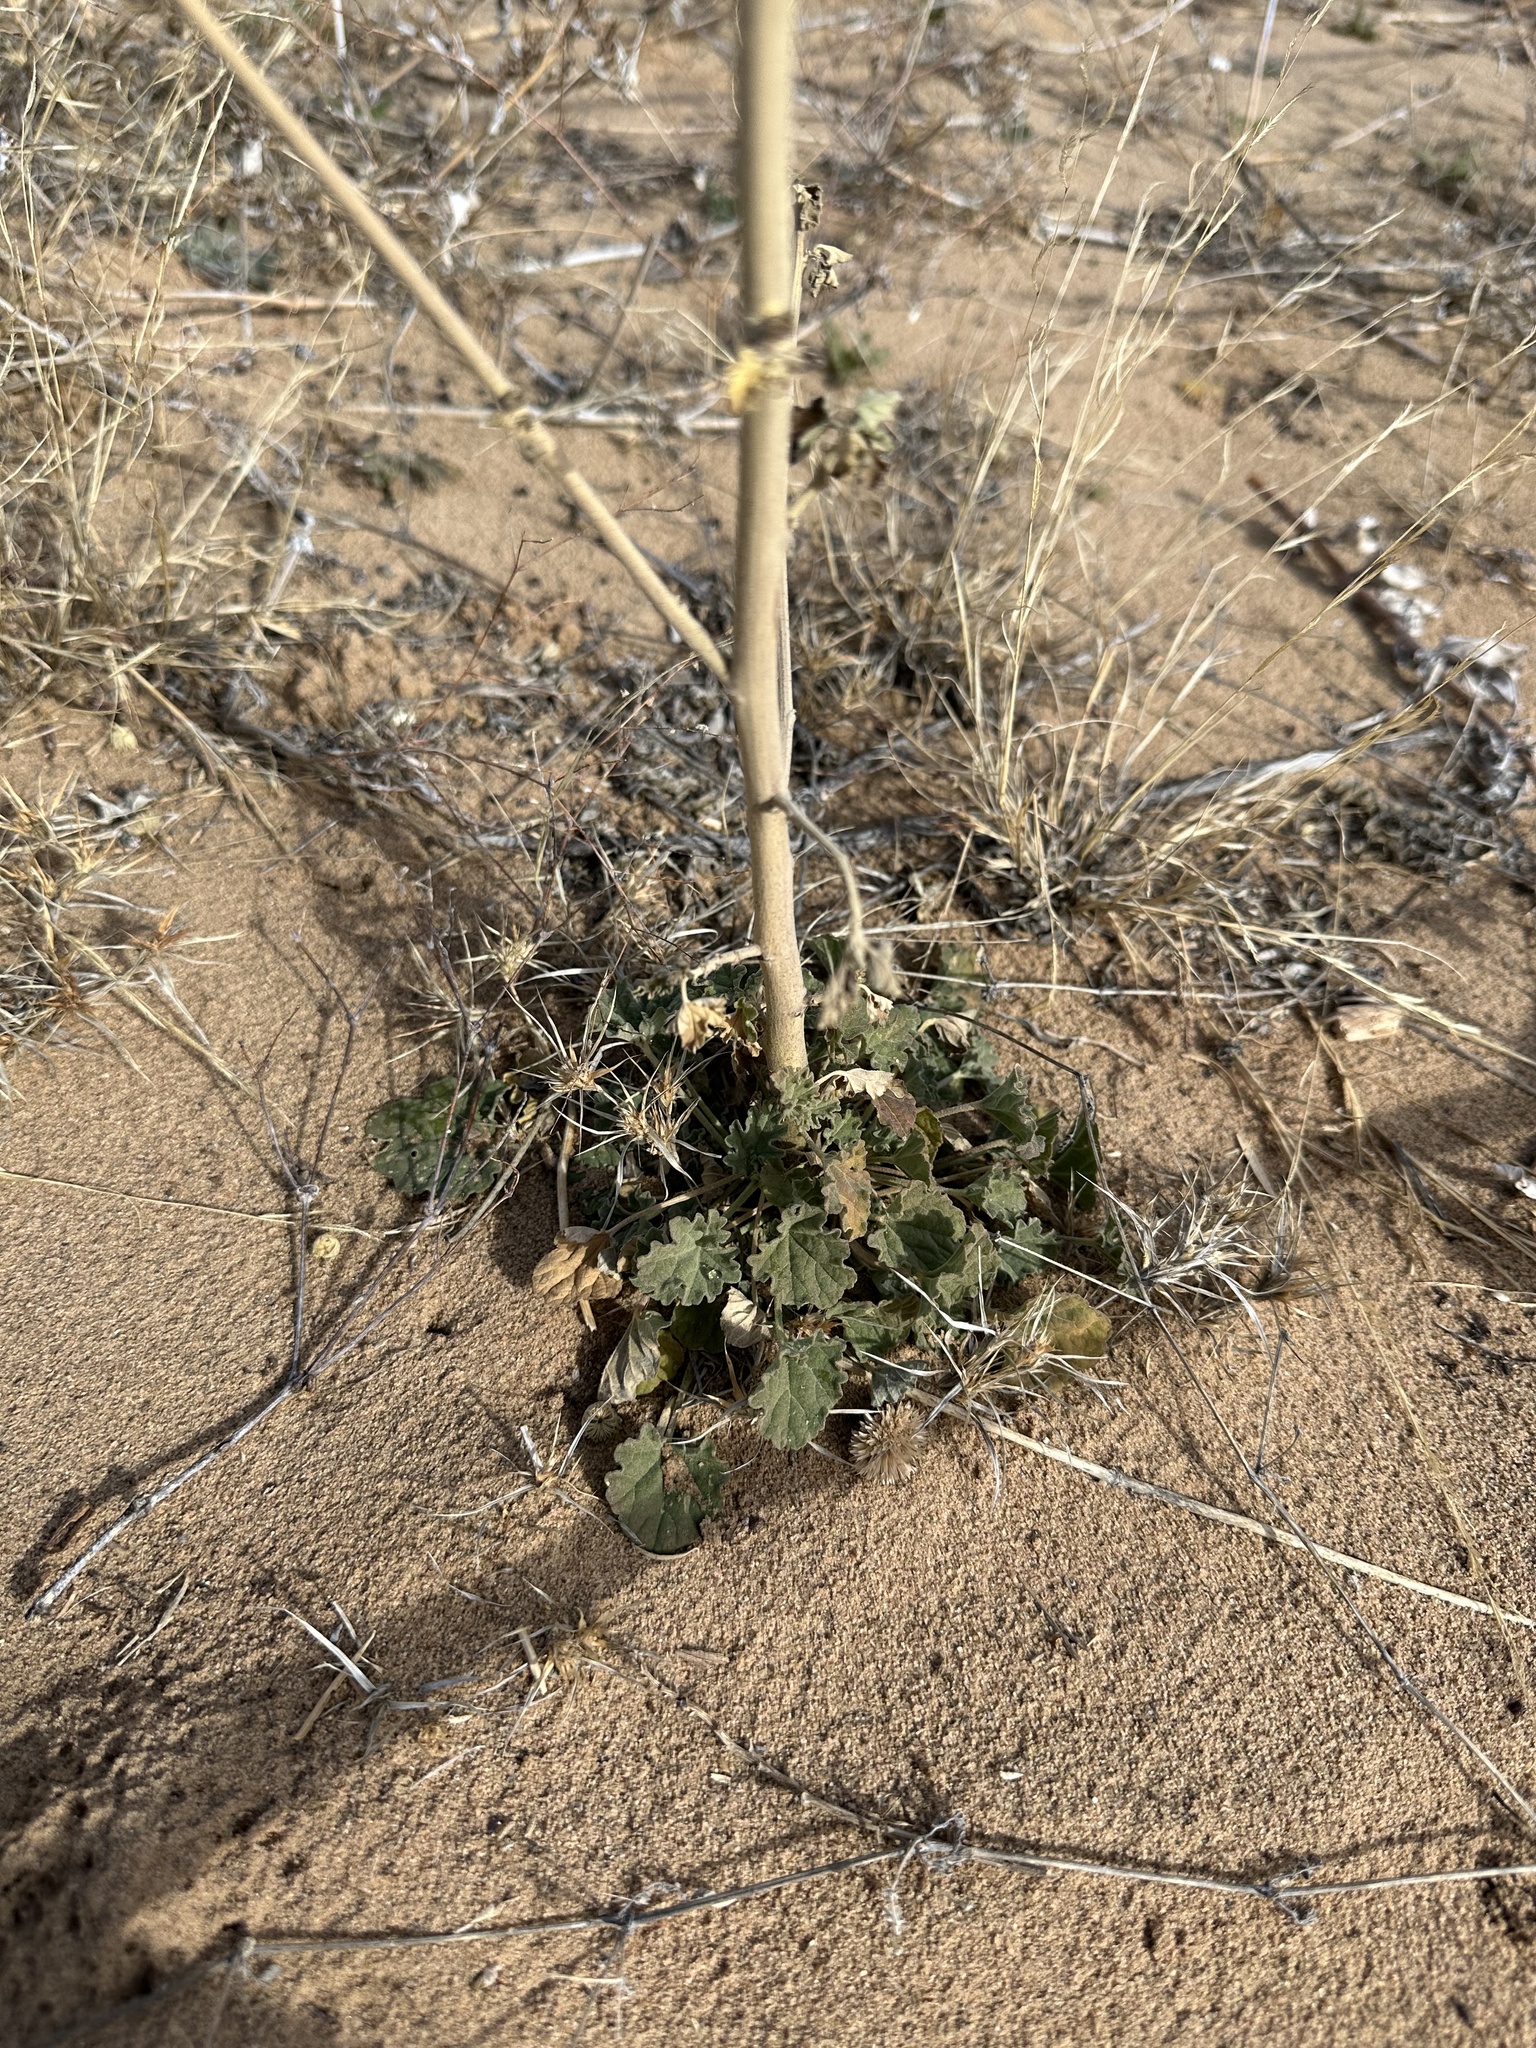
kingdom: Plantae
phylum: Tracheophyta
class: Magnoliopsida
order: Malvales
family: Malvaceae
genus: Sphaeralcea
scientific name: Sphaeralcea incana
